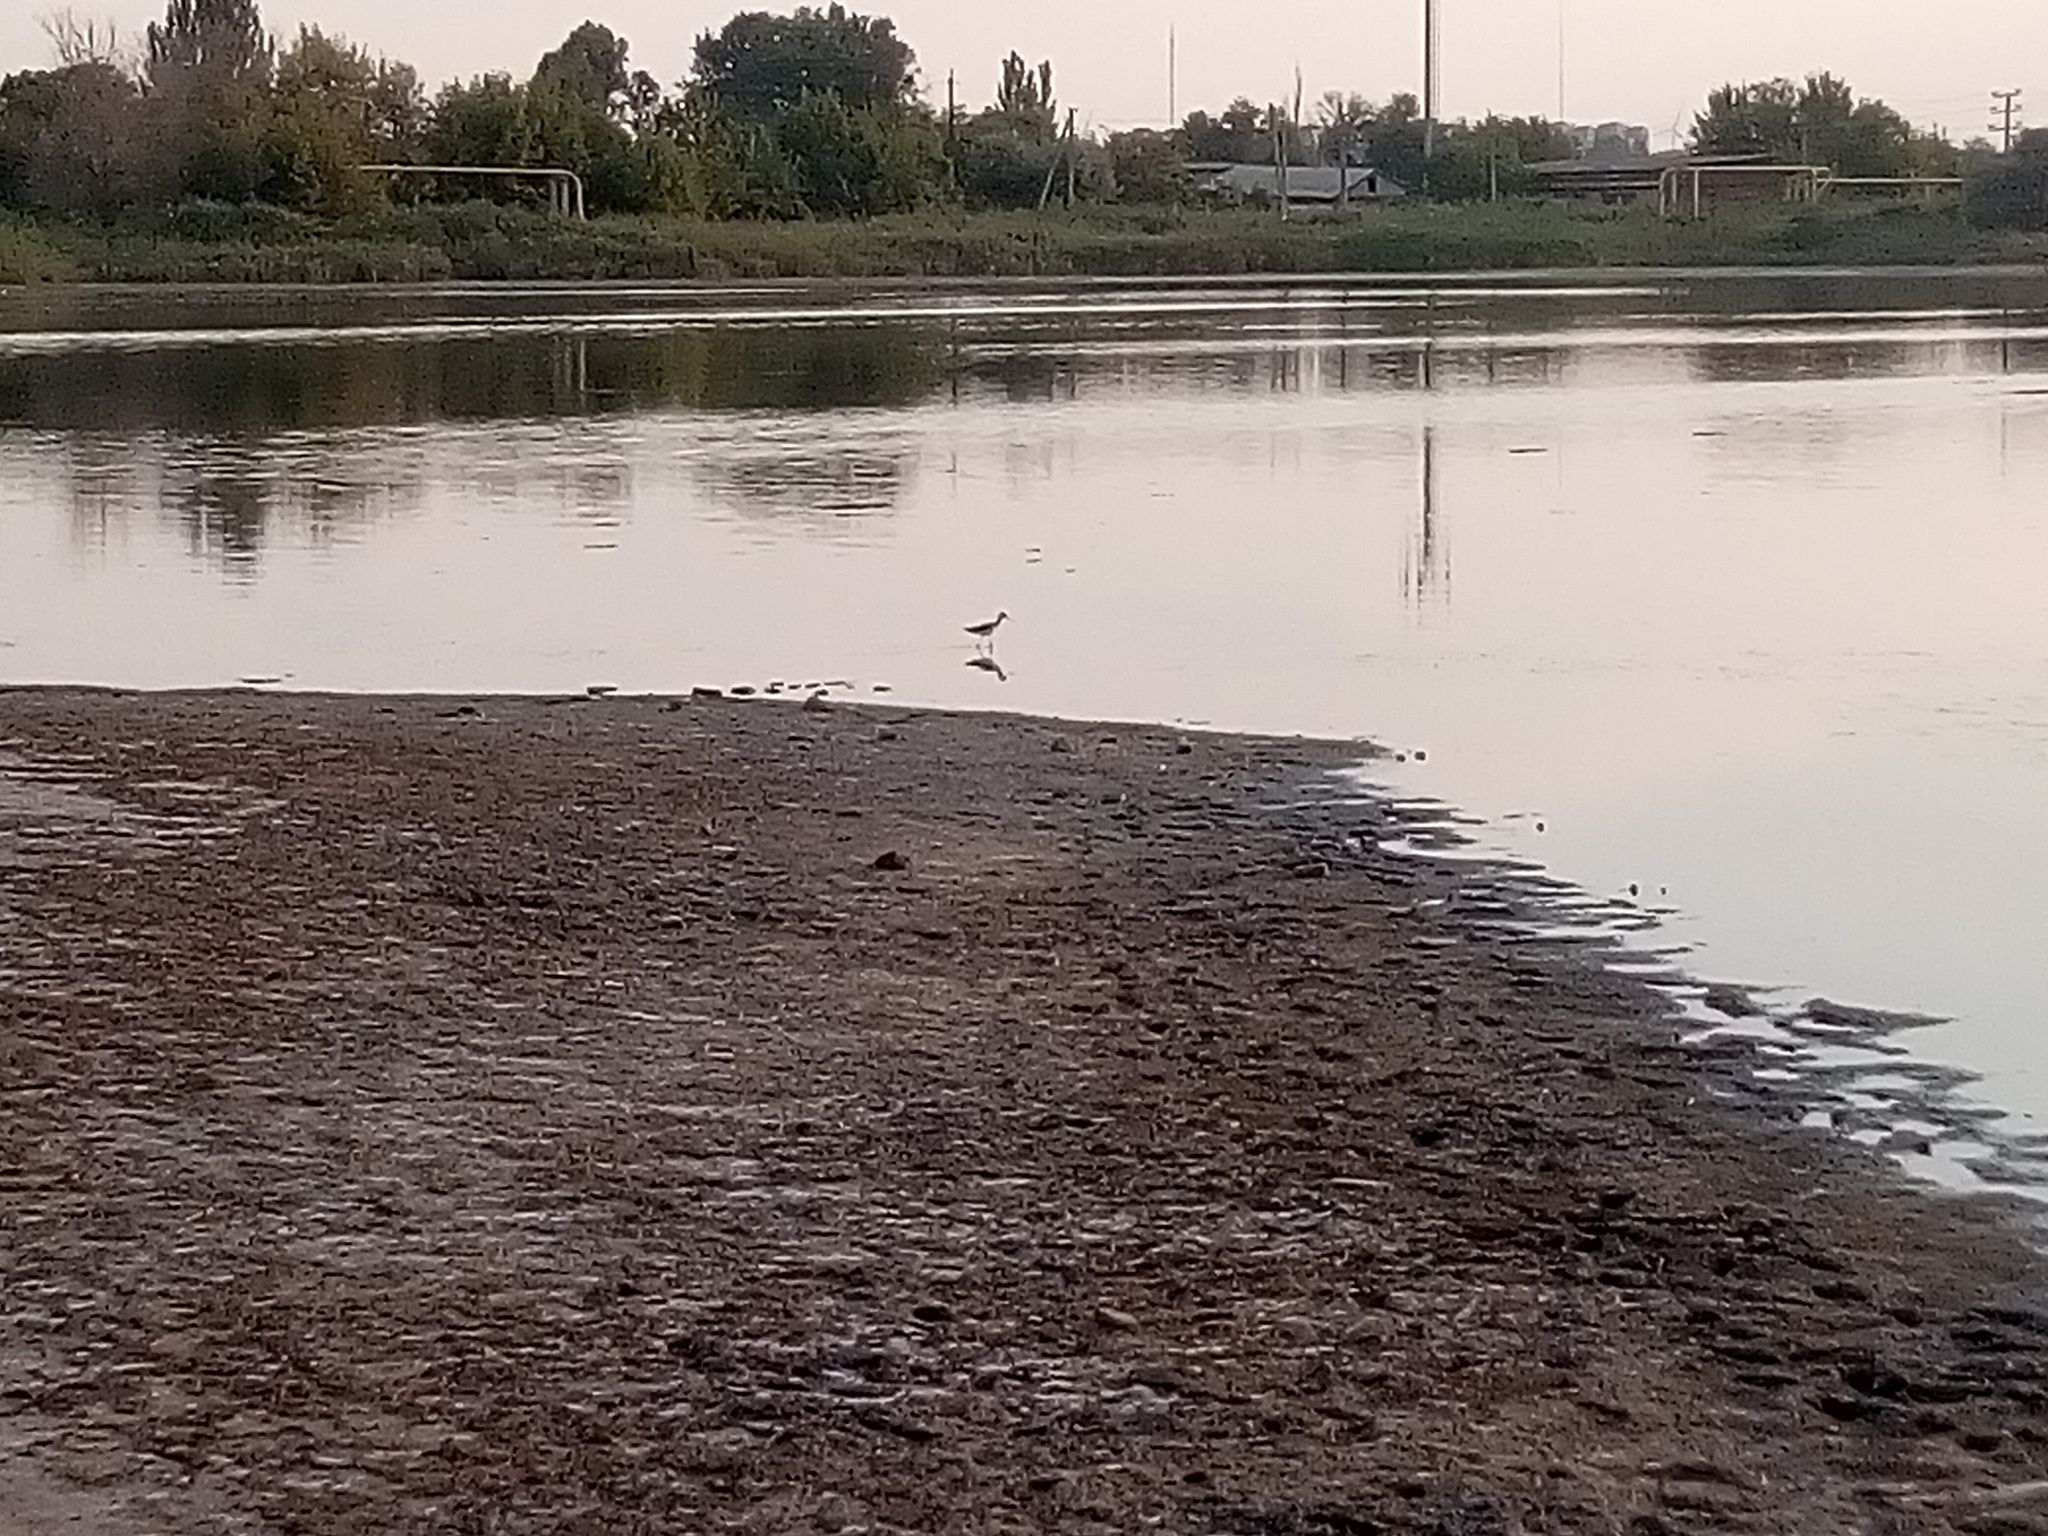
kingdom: Animalia
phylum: Chordata
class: Aves
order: Charadriiformes
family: Recurvirostridae
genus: Himantopus
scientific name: Himantopus himantopus
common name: Black-winged stilt
